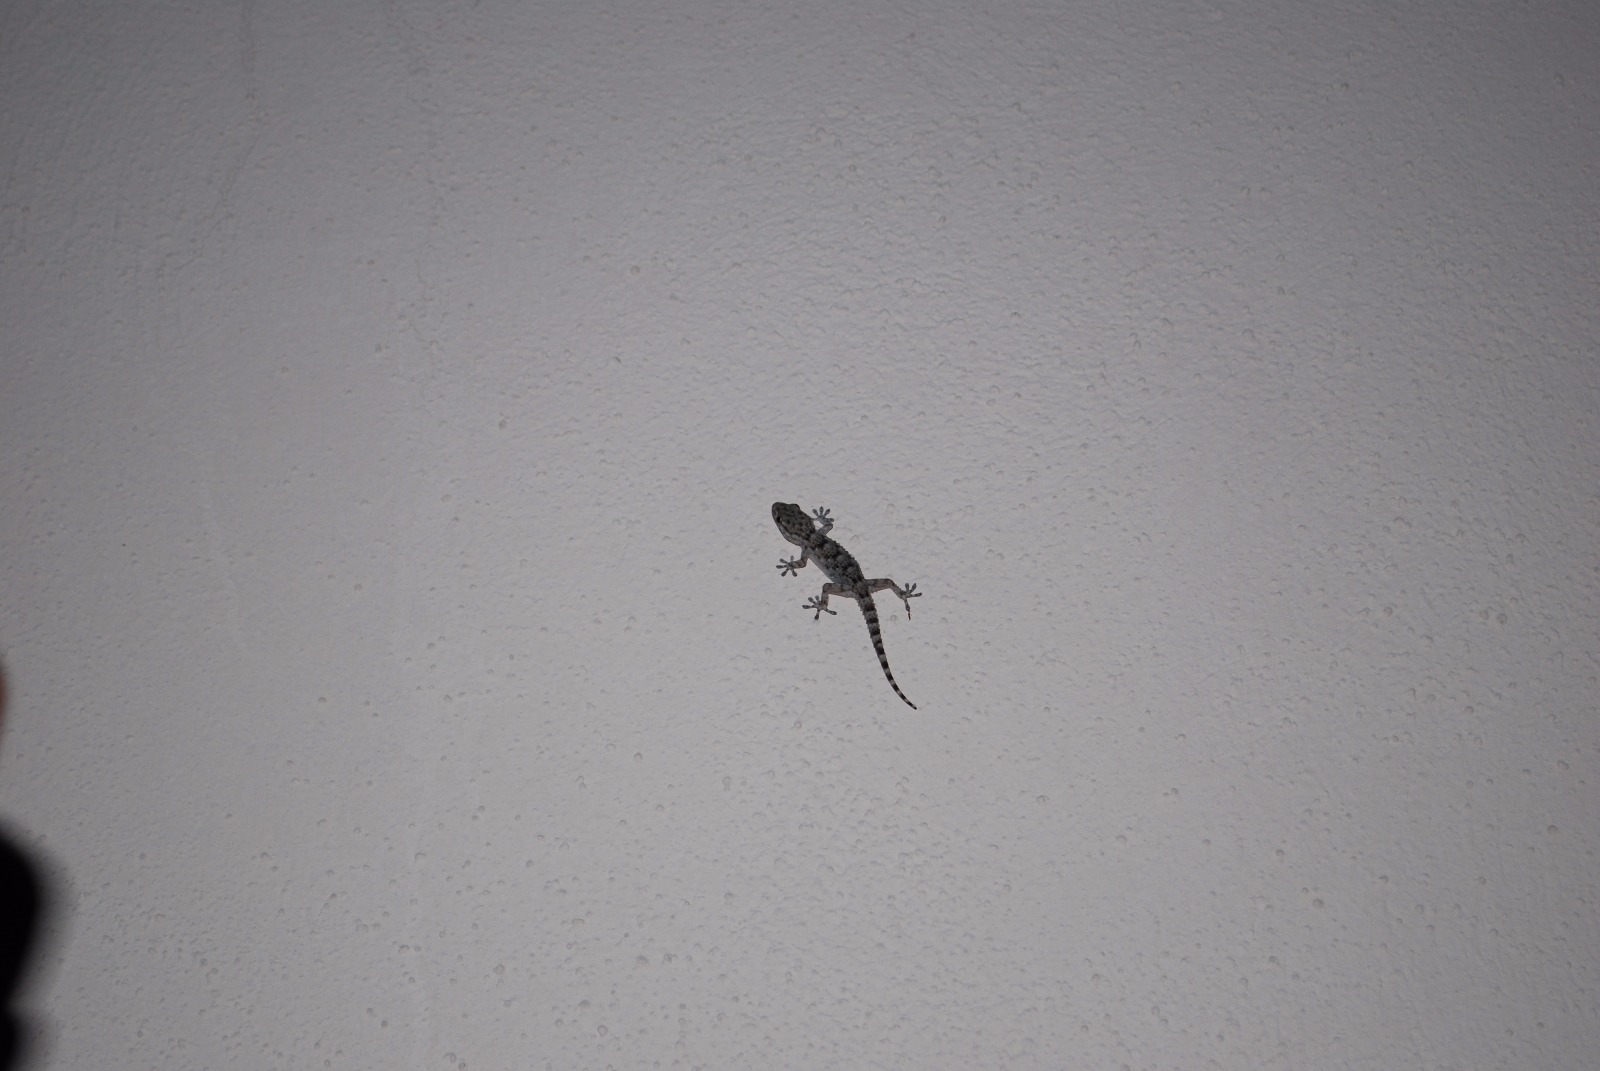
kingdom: Animalia
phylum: Chordata
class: Squamata
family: Phyllodactylidae
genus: Tarentola
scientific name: Tarentola mauritanica
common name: Moorish gecko
